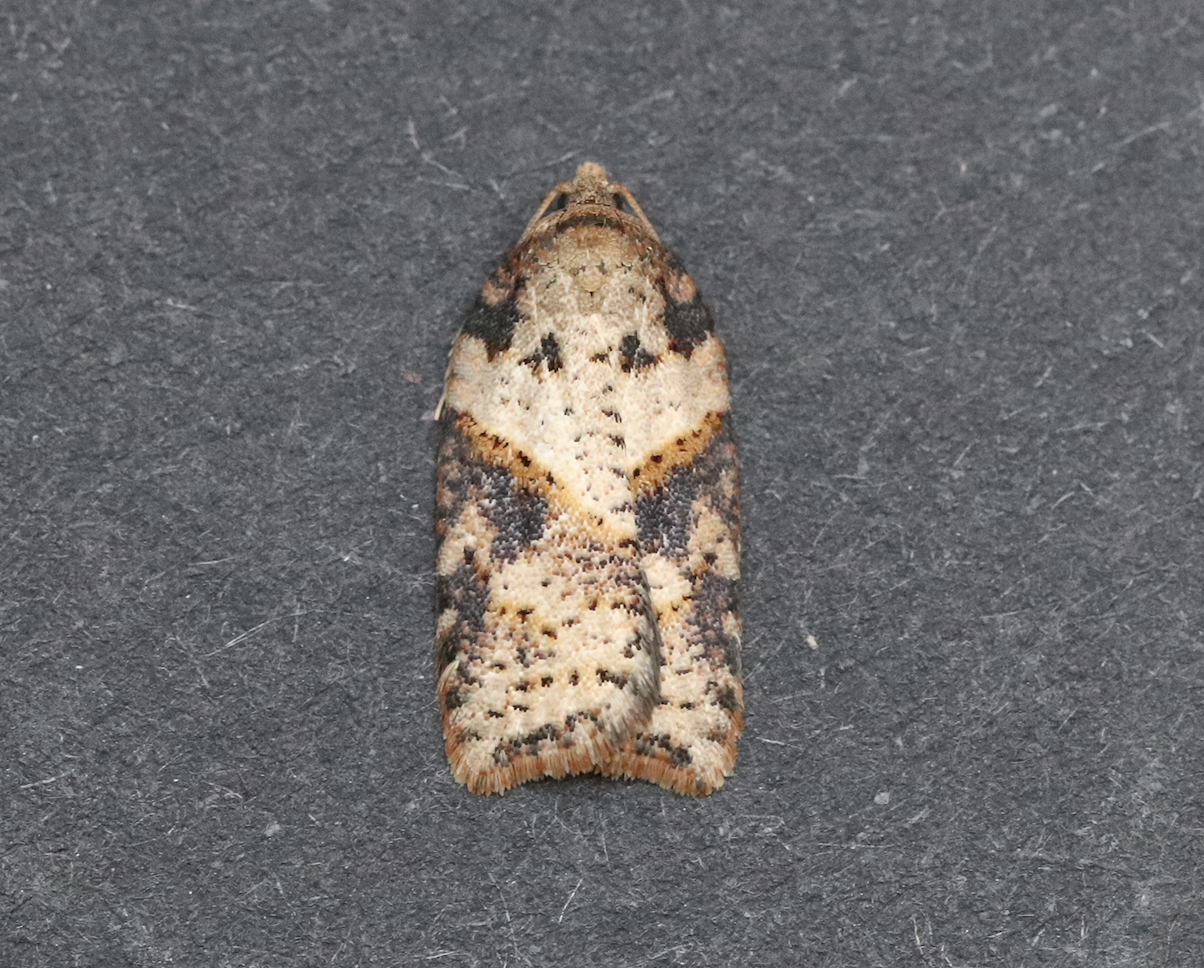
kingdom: Animalia
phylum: Arthropoda
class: Insecta
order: Lepidoptera
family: Tortricidae
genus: Acleris
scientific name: Acleris maccana
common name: Marbled button
